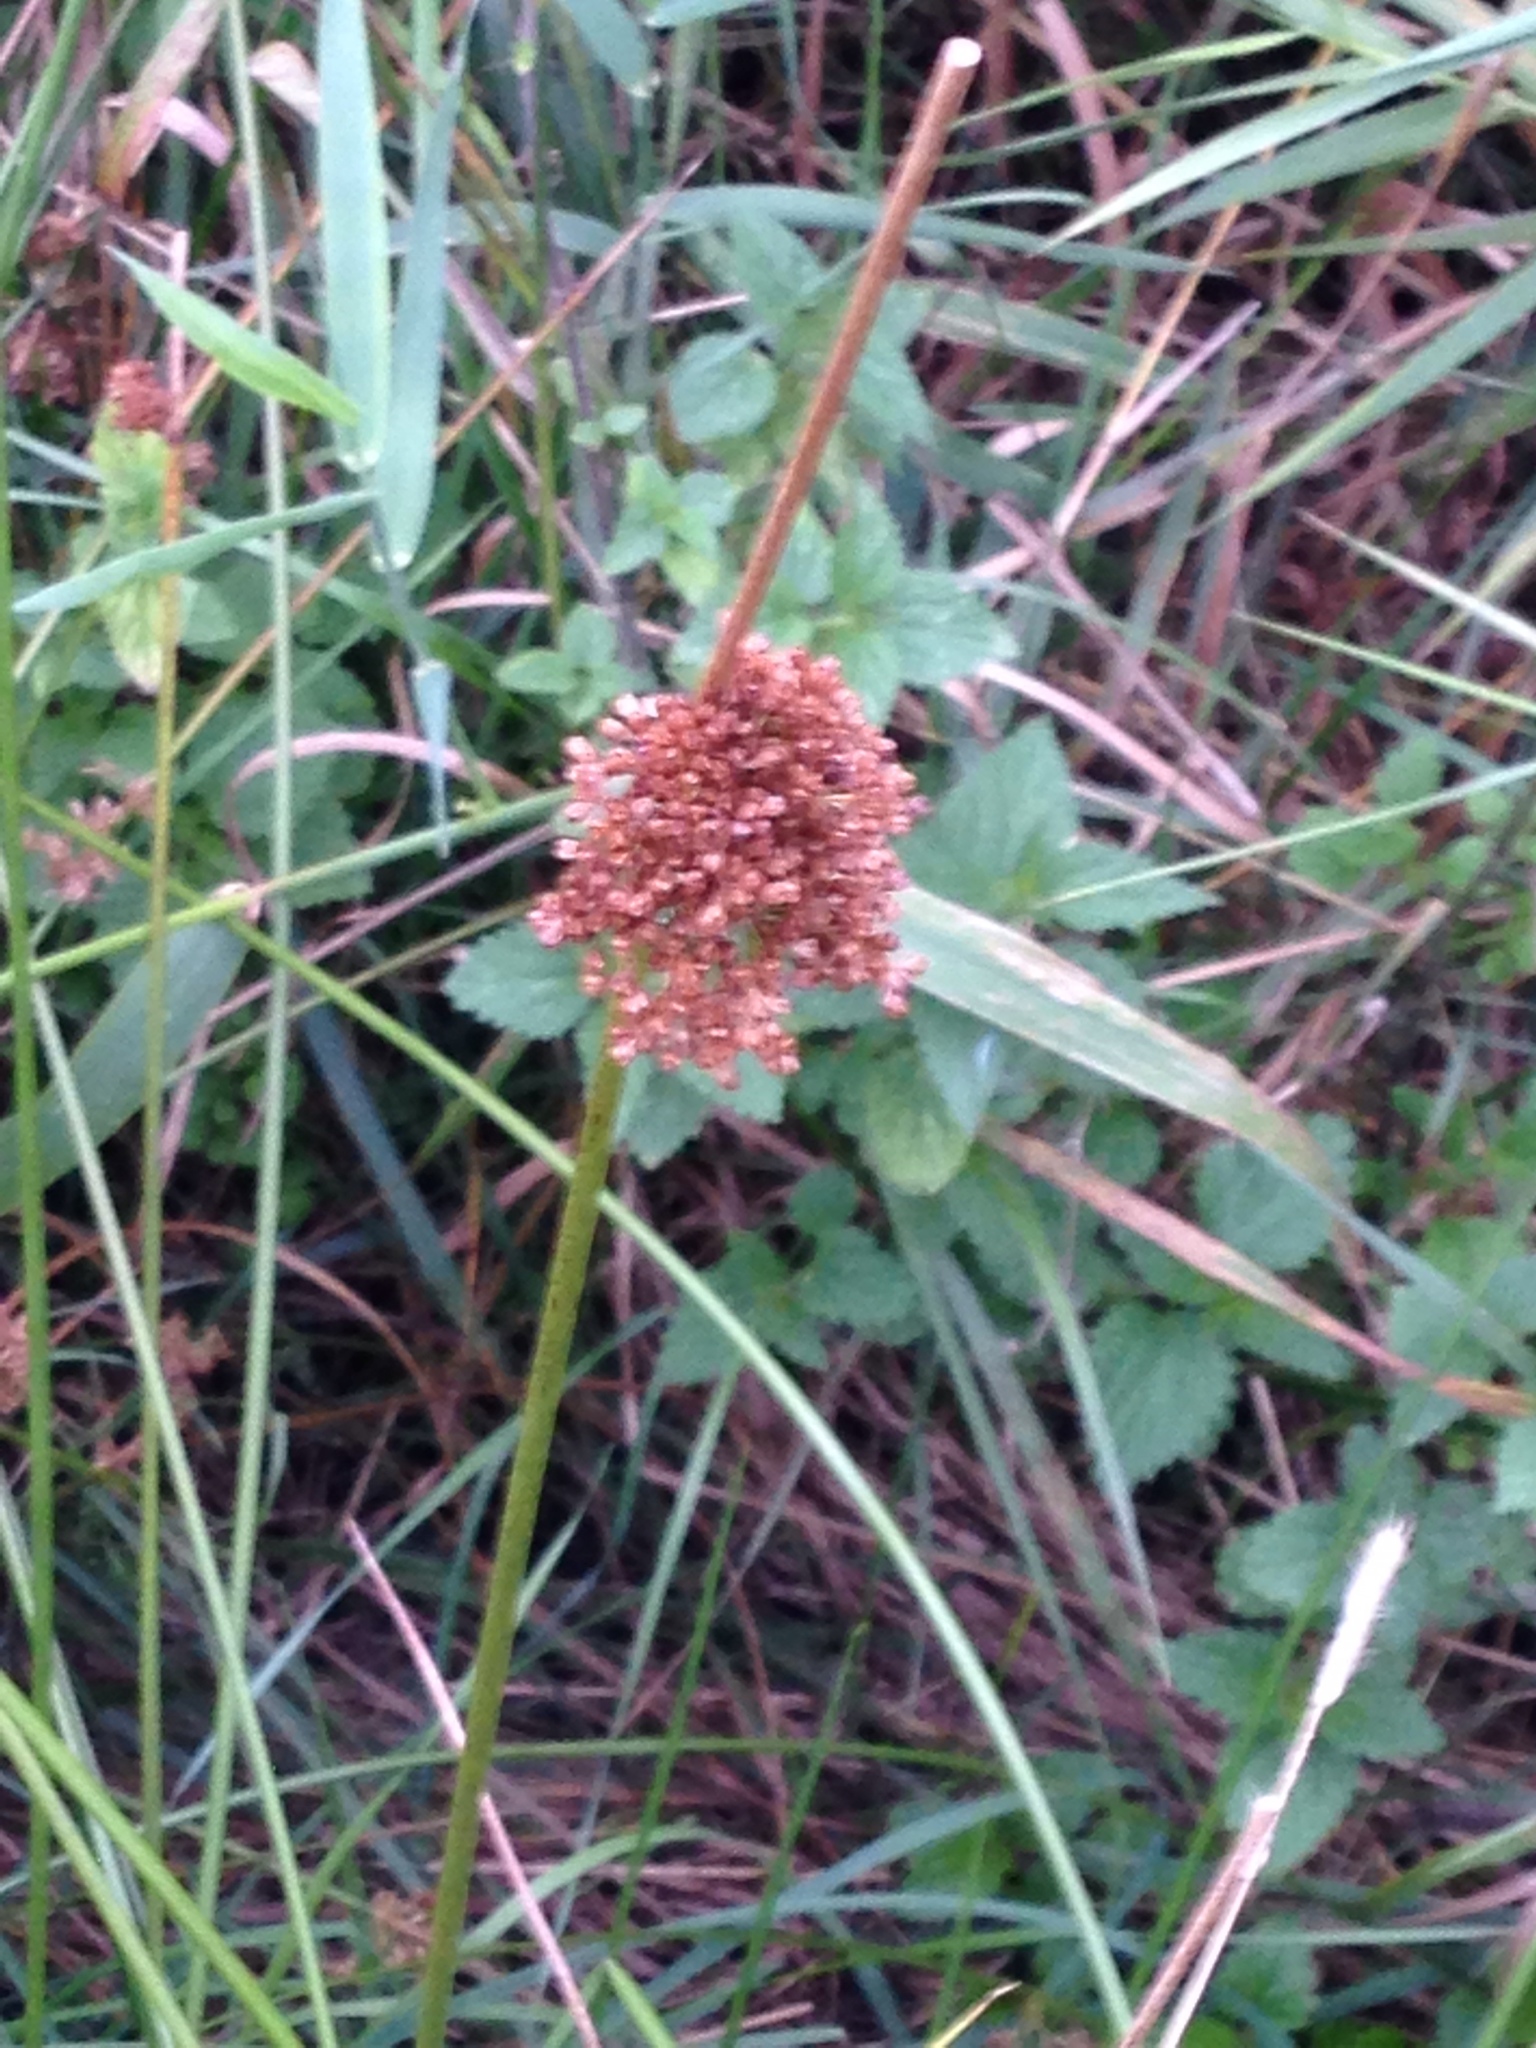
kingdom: Plantae
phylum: Tracheophyta
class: Liliopsida
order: Poales
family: Juncaceae
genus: Juncus
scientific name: Juncus effusus
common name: Soft rush
